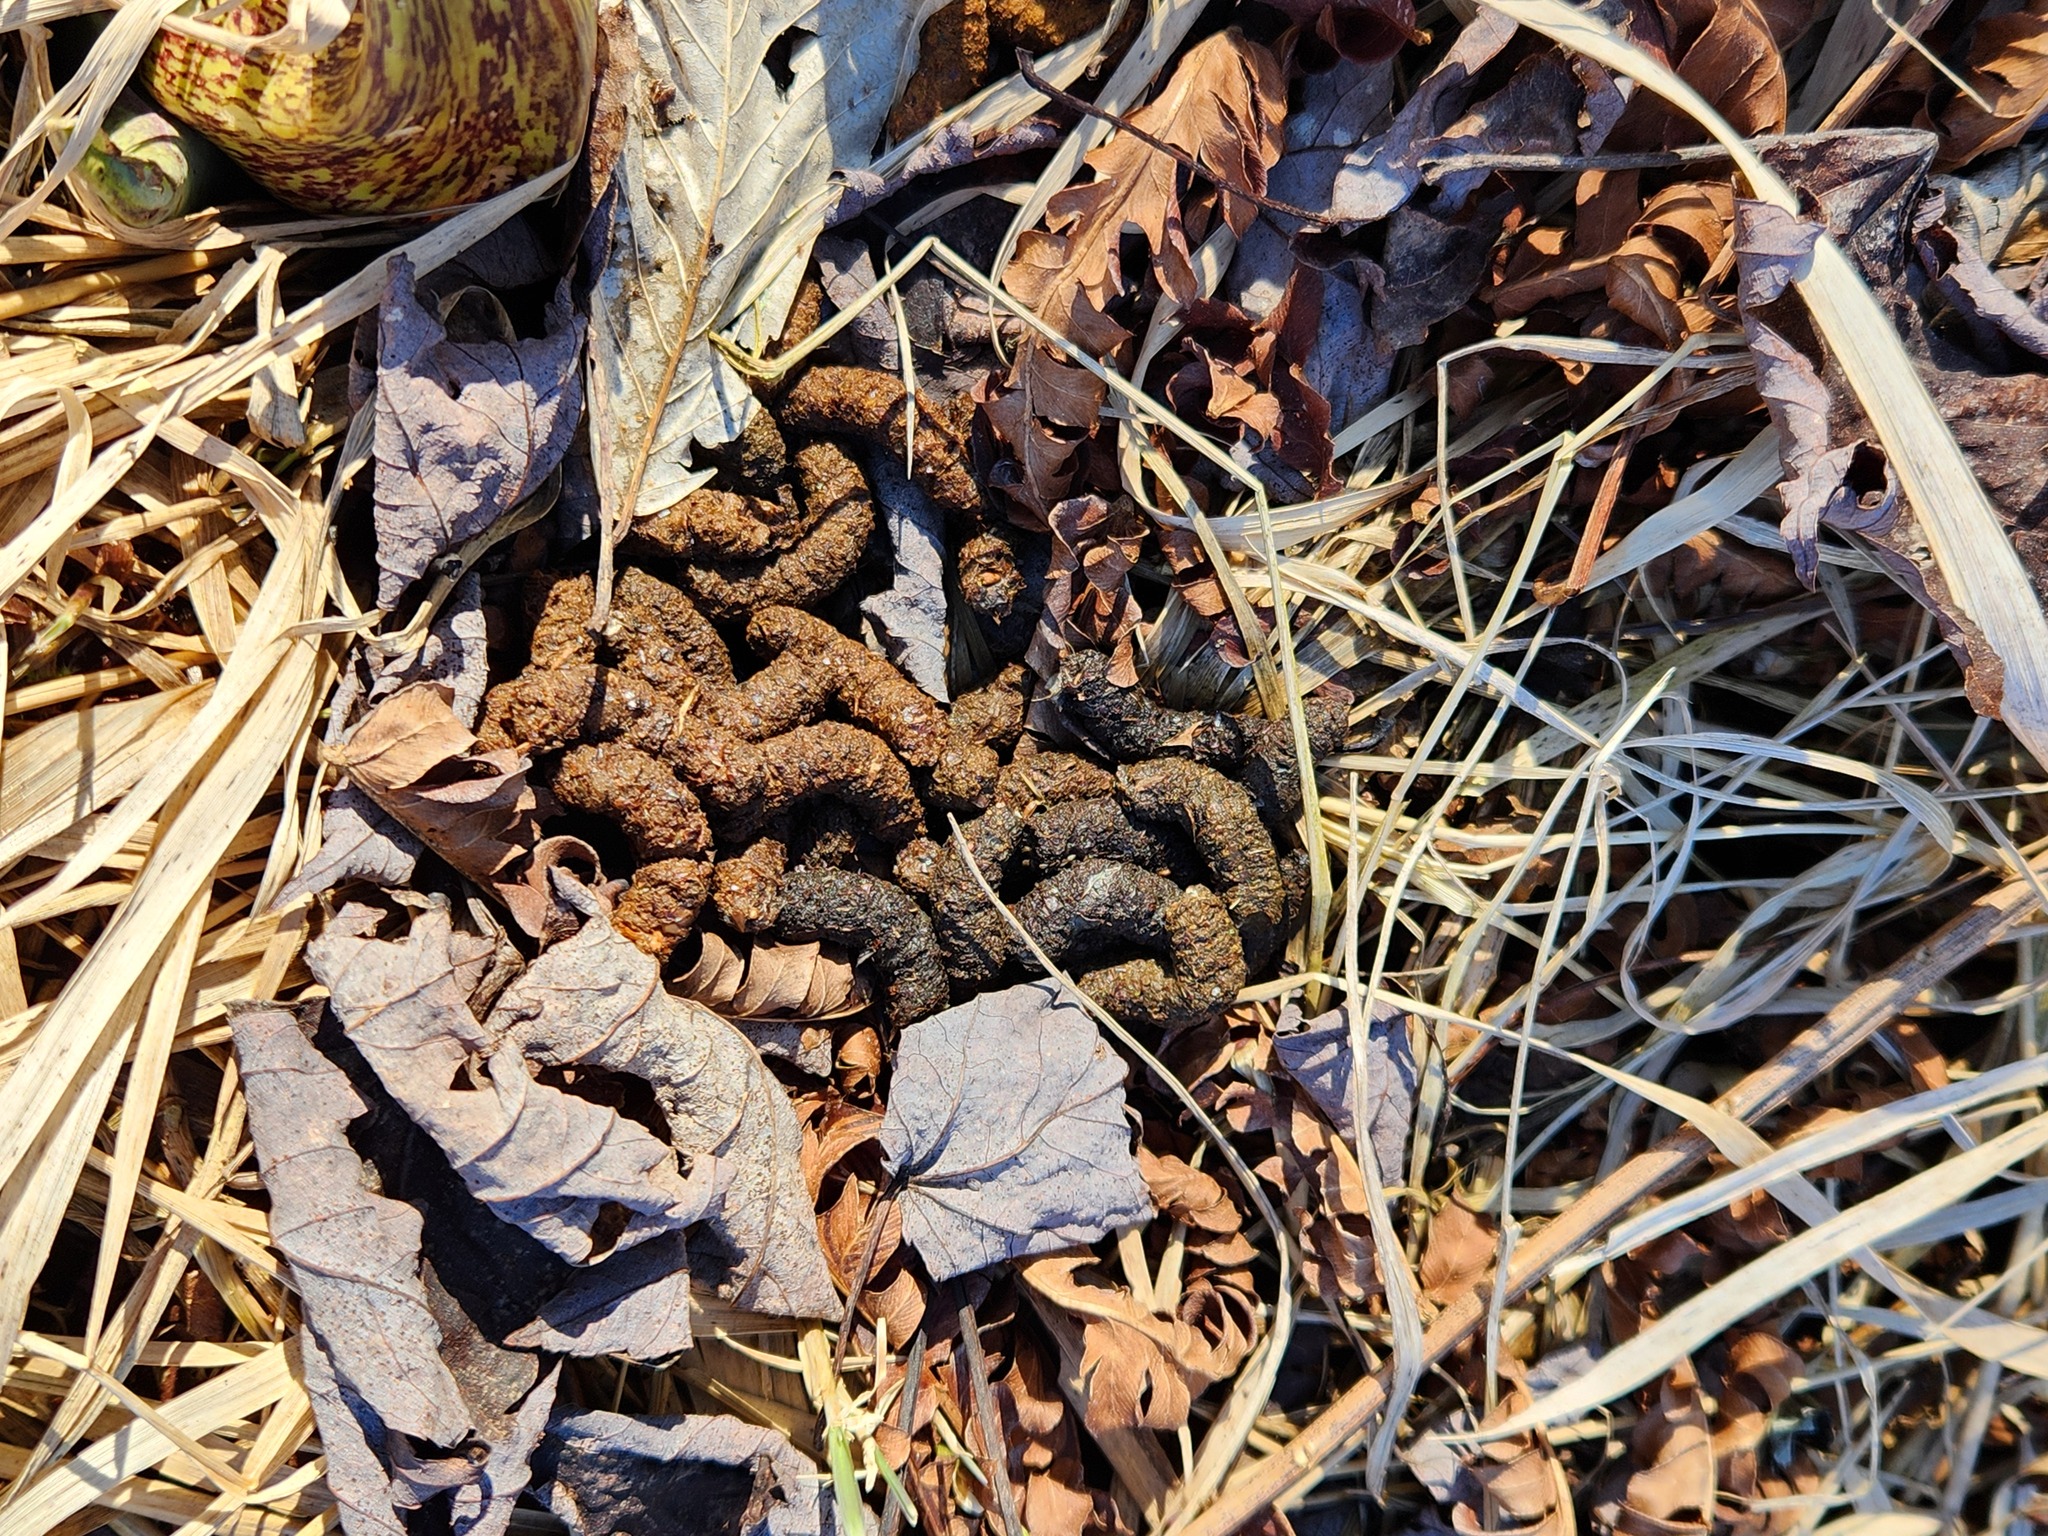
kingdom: Animalia
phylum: Chordata
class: Aves
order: Galliformes
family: Phasianidae
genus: Bonasa
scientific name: Bonasa umbellus
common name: Ruffed grouse
